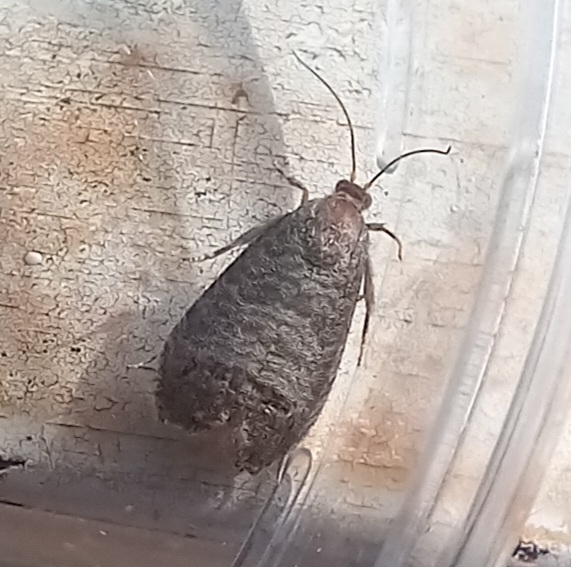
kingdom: Animalia
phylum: Arthropoda
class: Insecta
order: Lepidoptera
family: Tortricidae
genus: Cydia
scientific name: Cydia pomonella
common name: Codling moth
